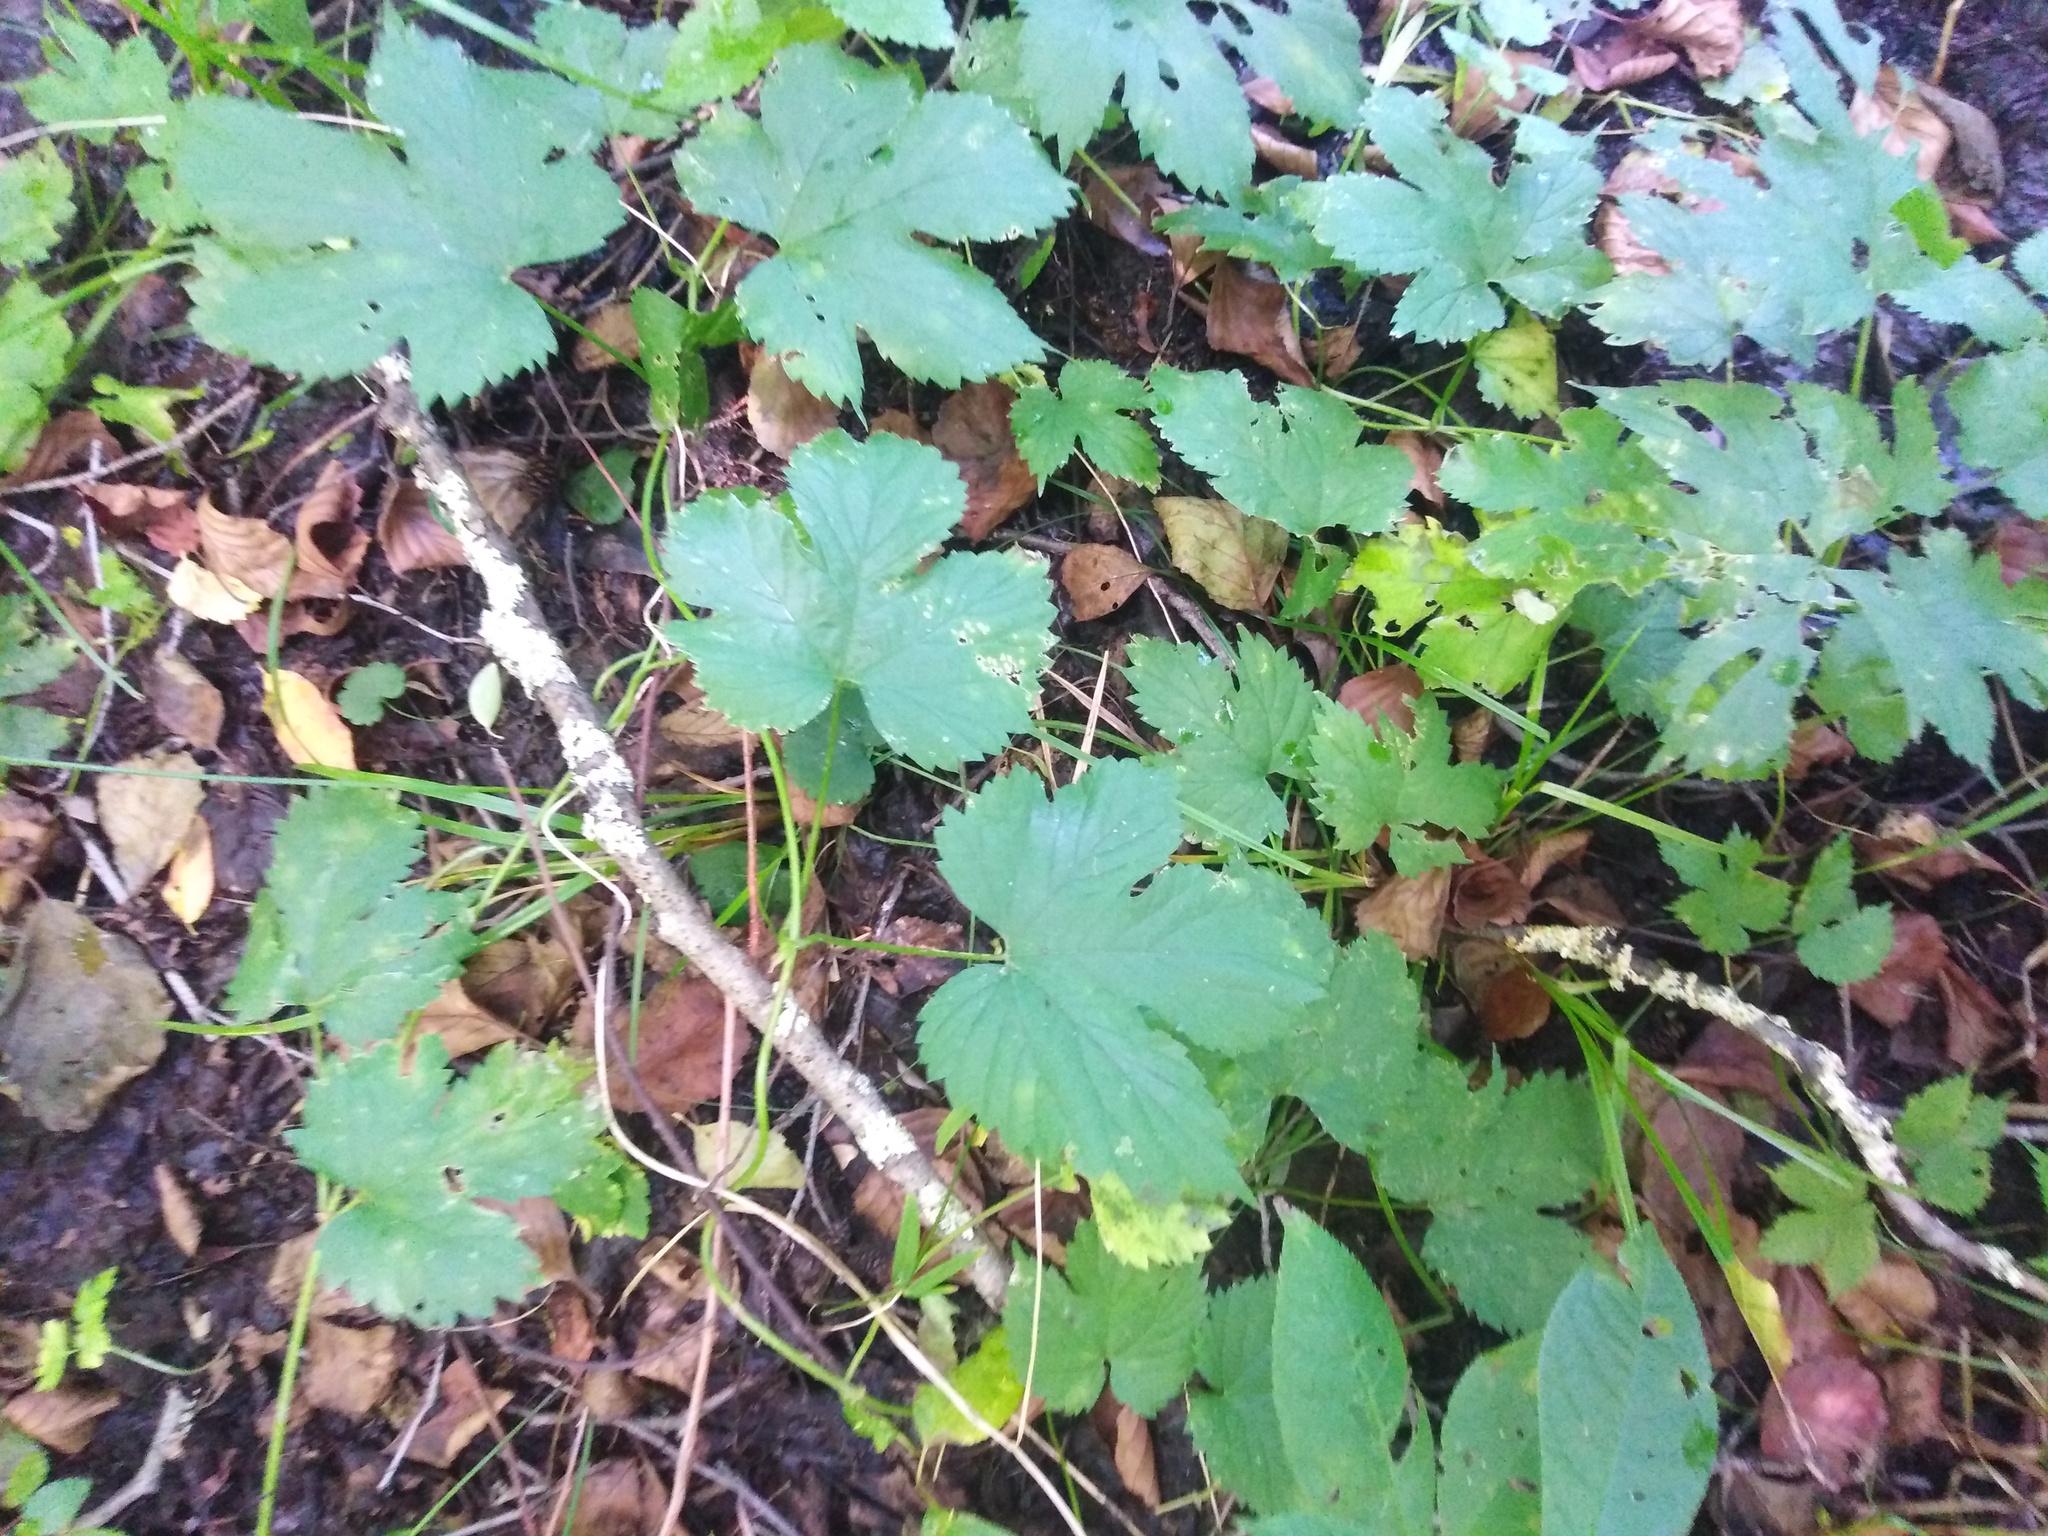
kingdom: Plantae
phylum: Tracheophyta
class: Magnoliopsida
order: Rosales
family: Cannabaceae
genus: Humulus
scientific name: Humulus lupulus
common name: Hop
